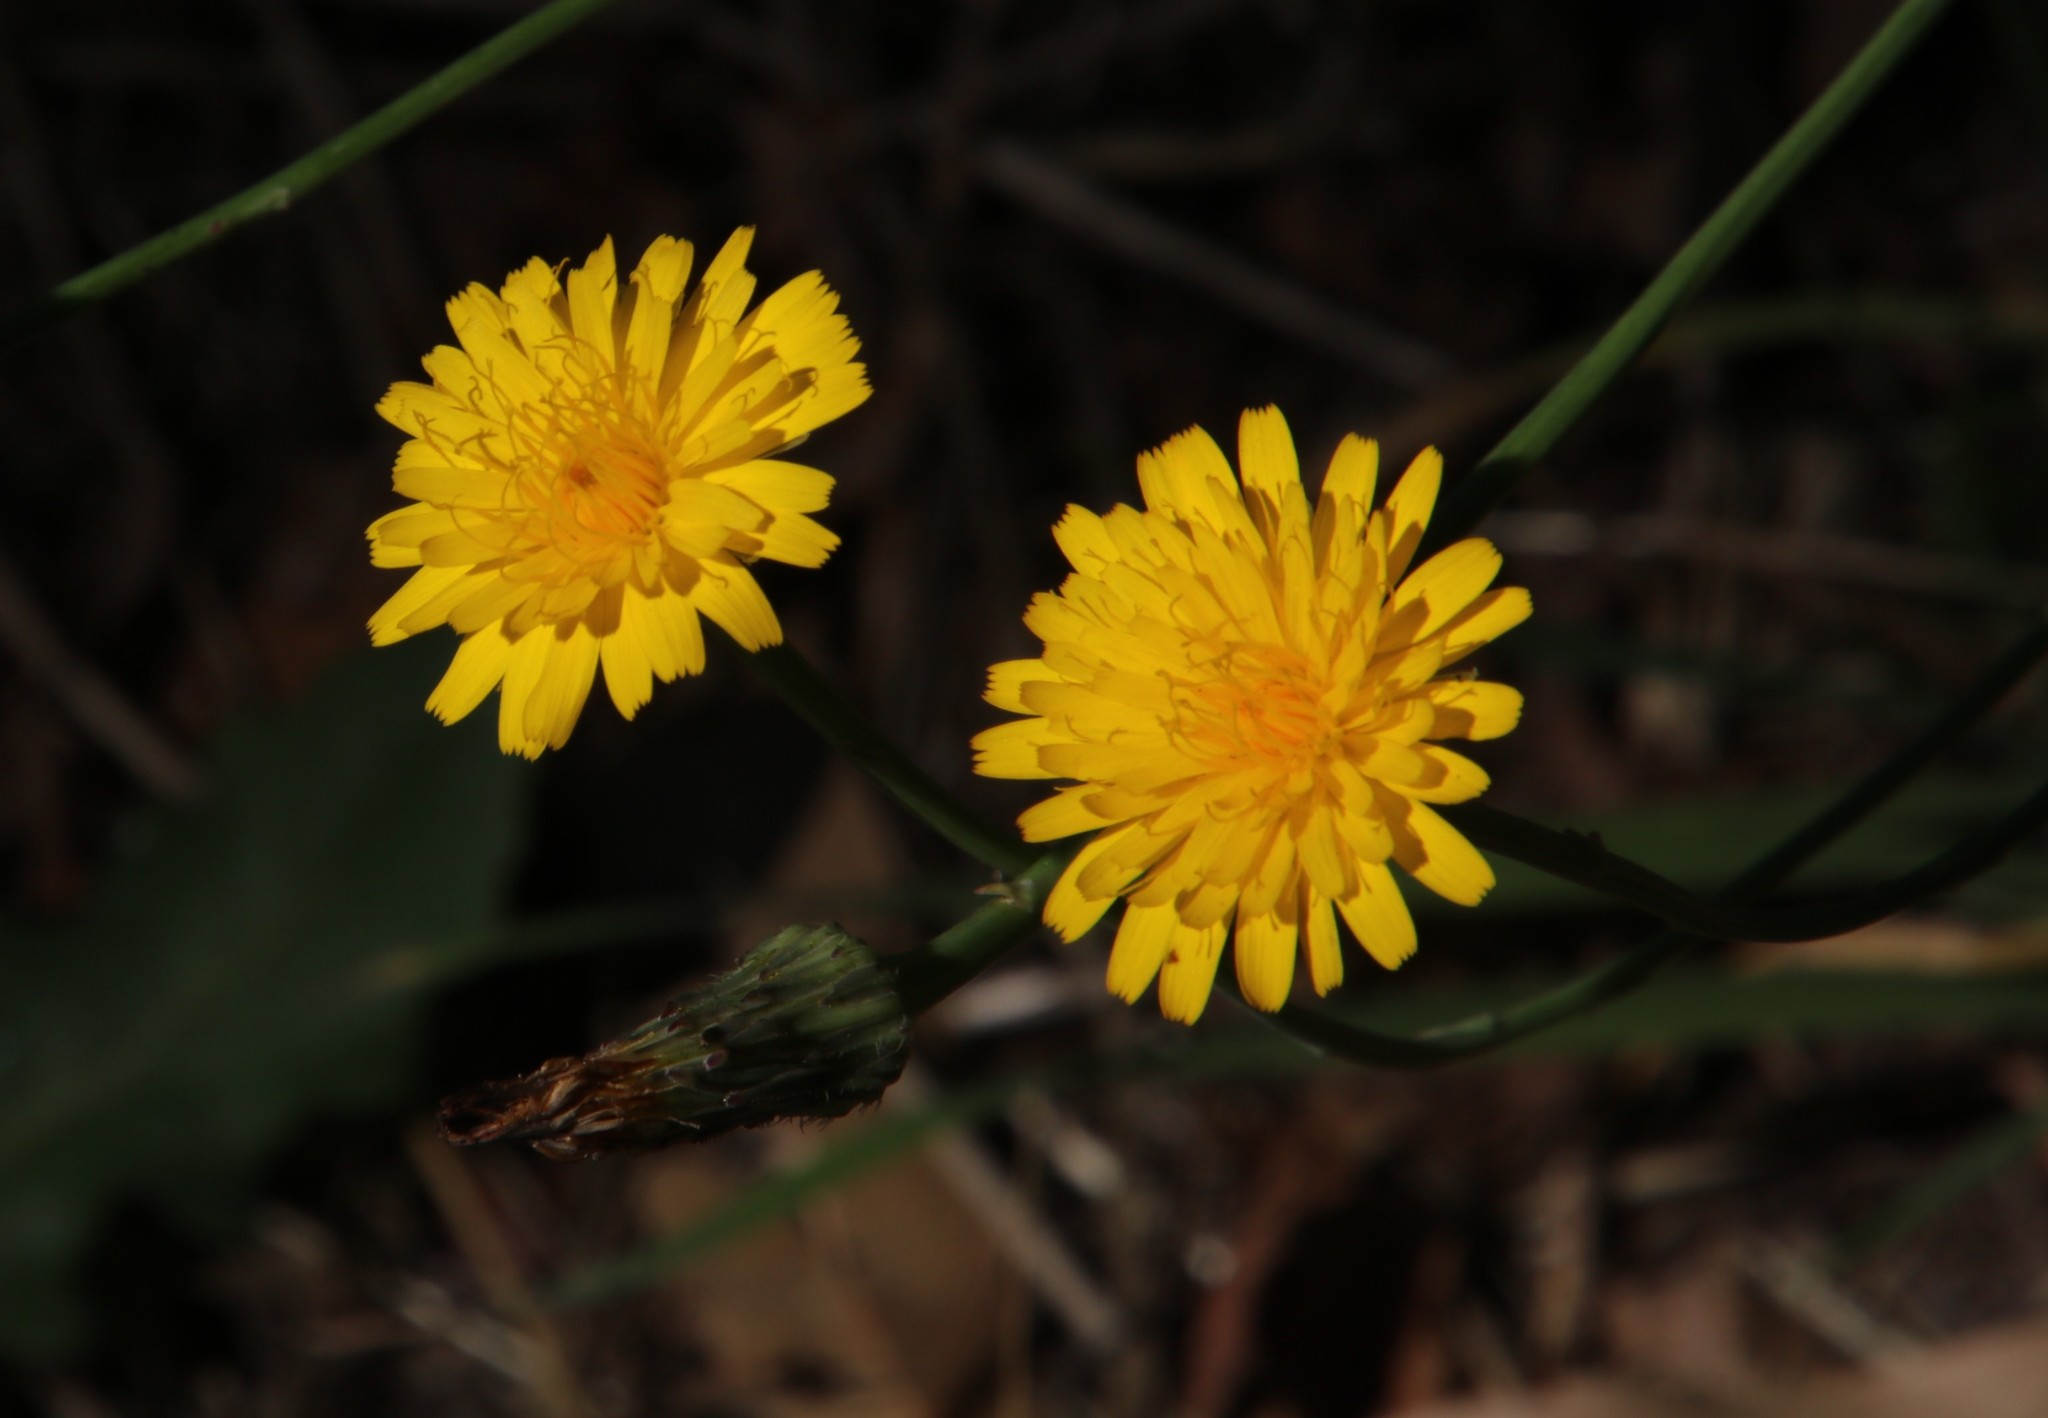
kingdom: Plantae
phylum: Tracheophyta
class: Magnoliopsida
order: Asterales
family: Asteraceae
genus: Hypochaeris
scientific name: Hypochaeris radicata
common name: Flatweed
